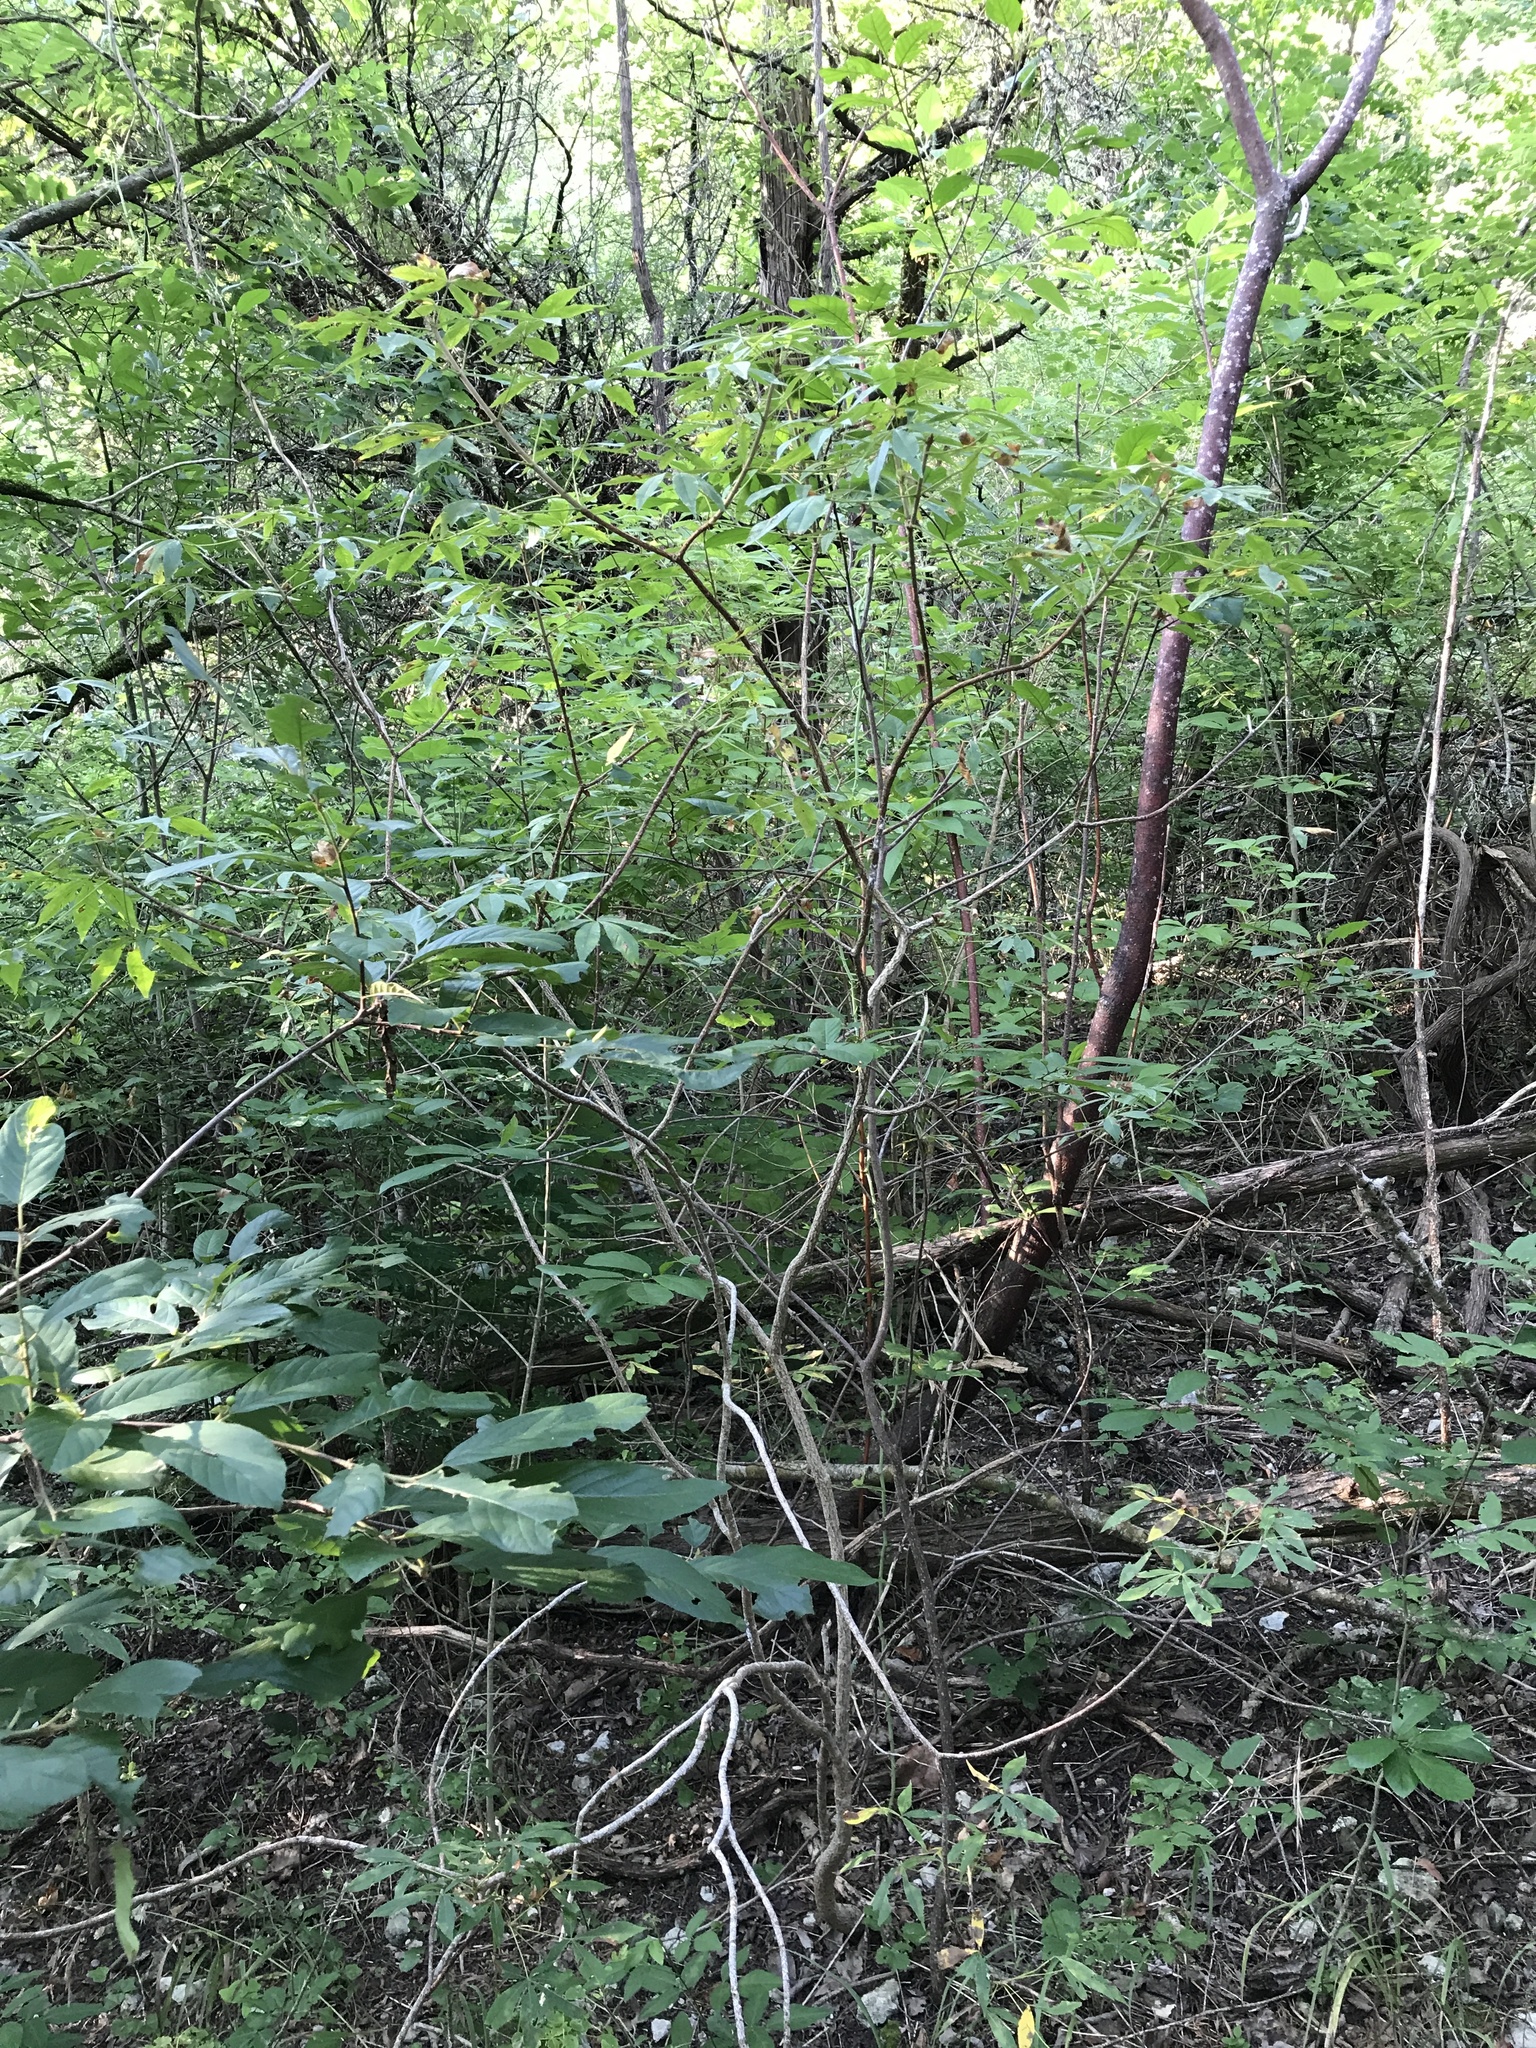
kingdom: Plantae
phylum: Tracheophyta
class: Magnoliopsida
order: Sapindales
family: Sapindaceae
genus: Aesculus
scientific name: Aesculus glabra
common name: Ohio buckeye
